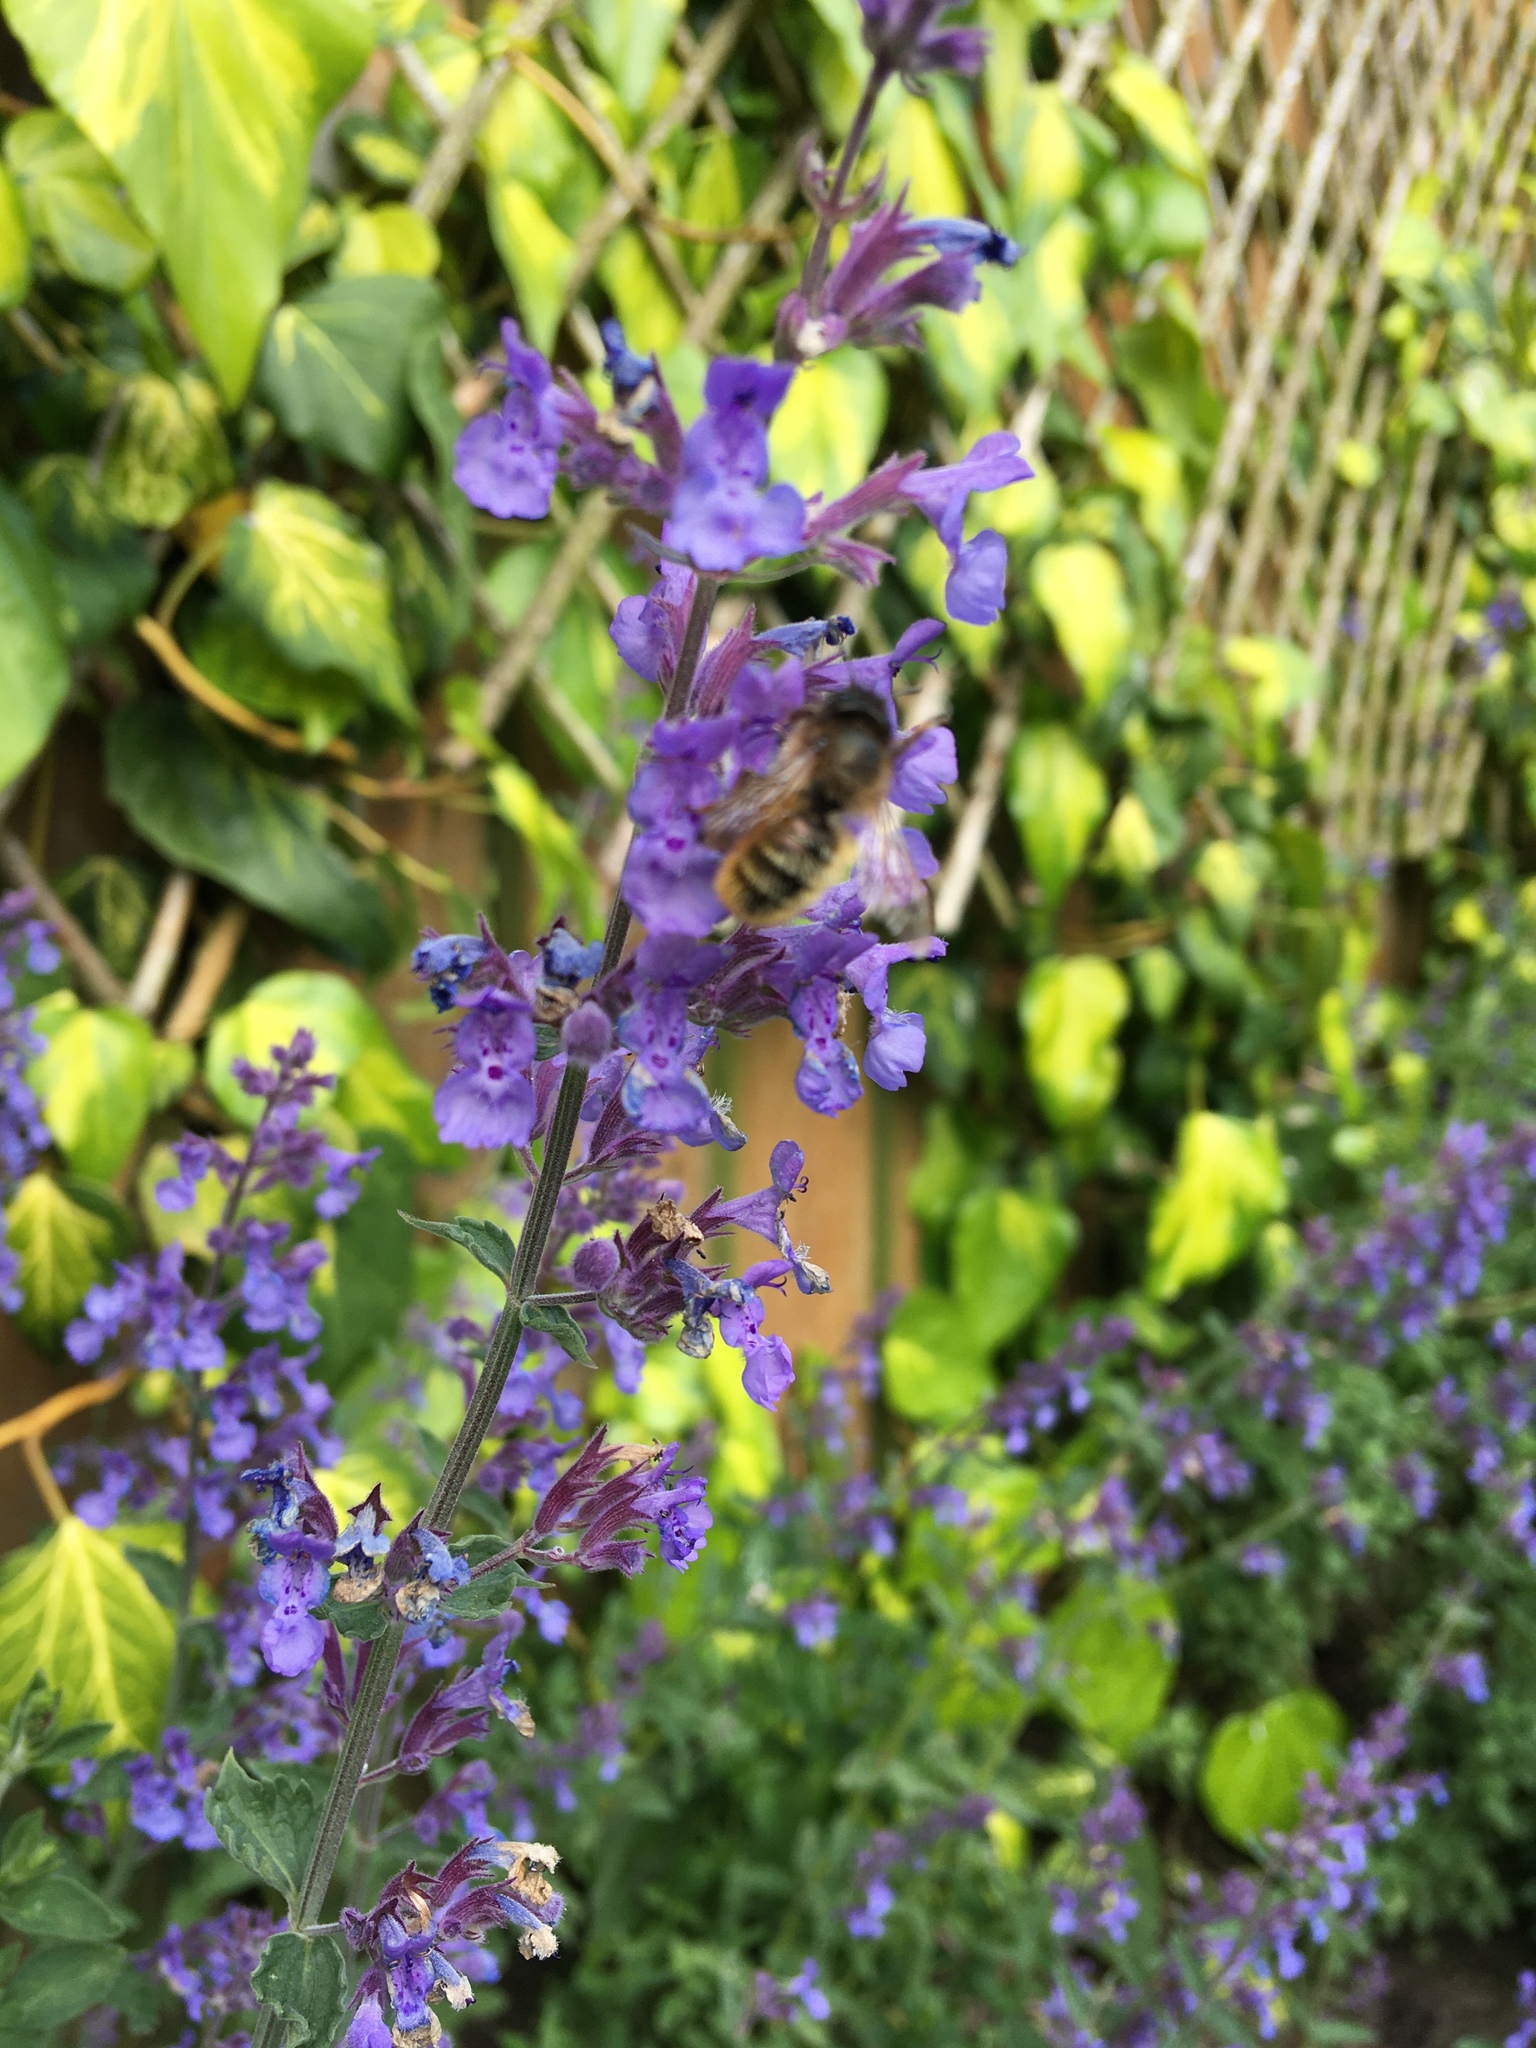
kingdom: Animalia
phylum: Arthropoda
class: Insecta
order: Hymenoptera
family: Megachilidae
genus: Osmia
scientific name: Osmia bicornis
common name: Red mason bee
